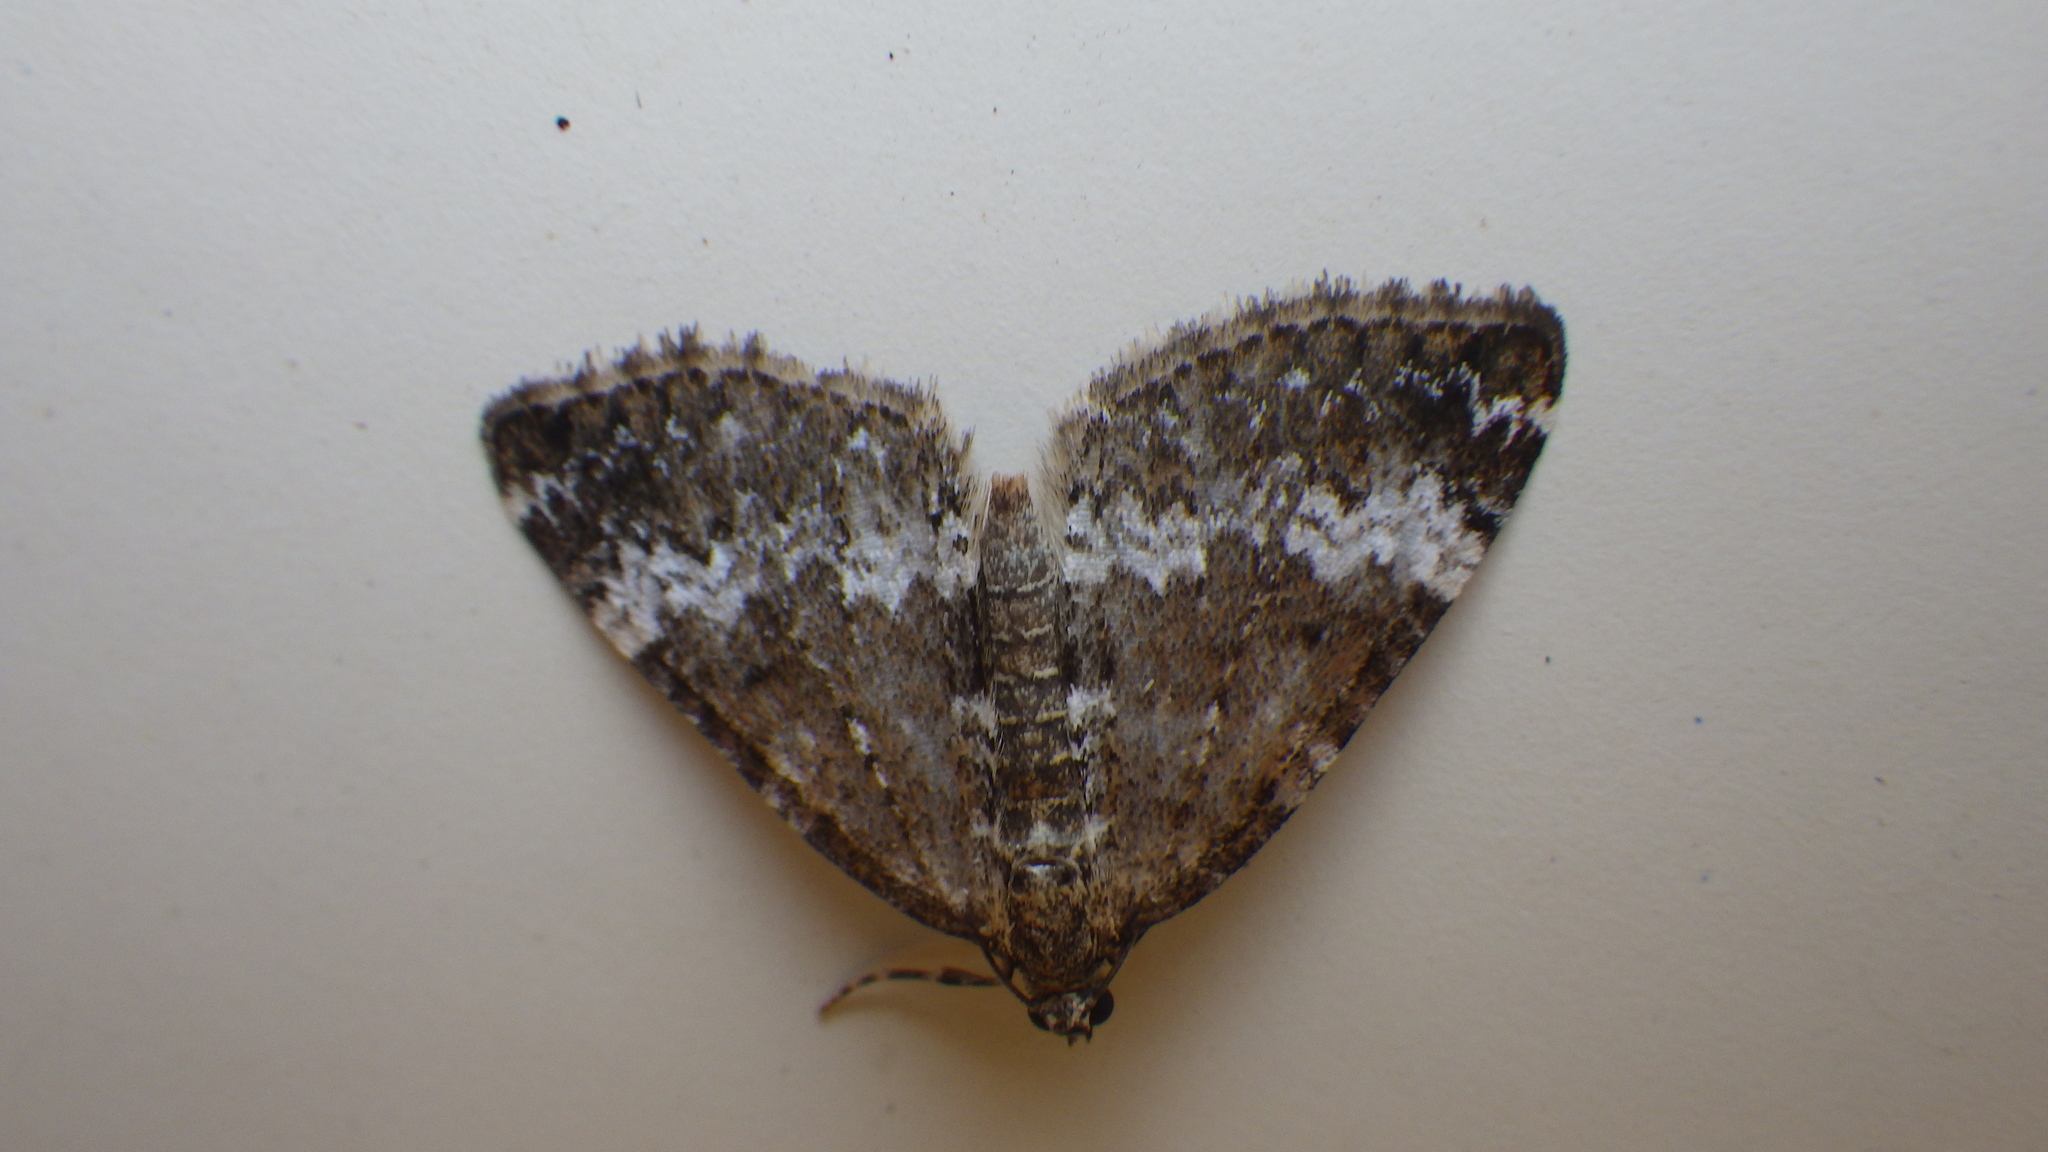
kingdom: Animalia
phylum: Arthropoda
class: Insecta
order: Lepidoptera
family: Geometridae
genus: Perizoma
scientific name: Perizoma alchemillata
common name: Small rivulet
